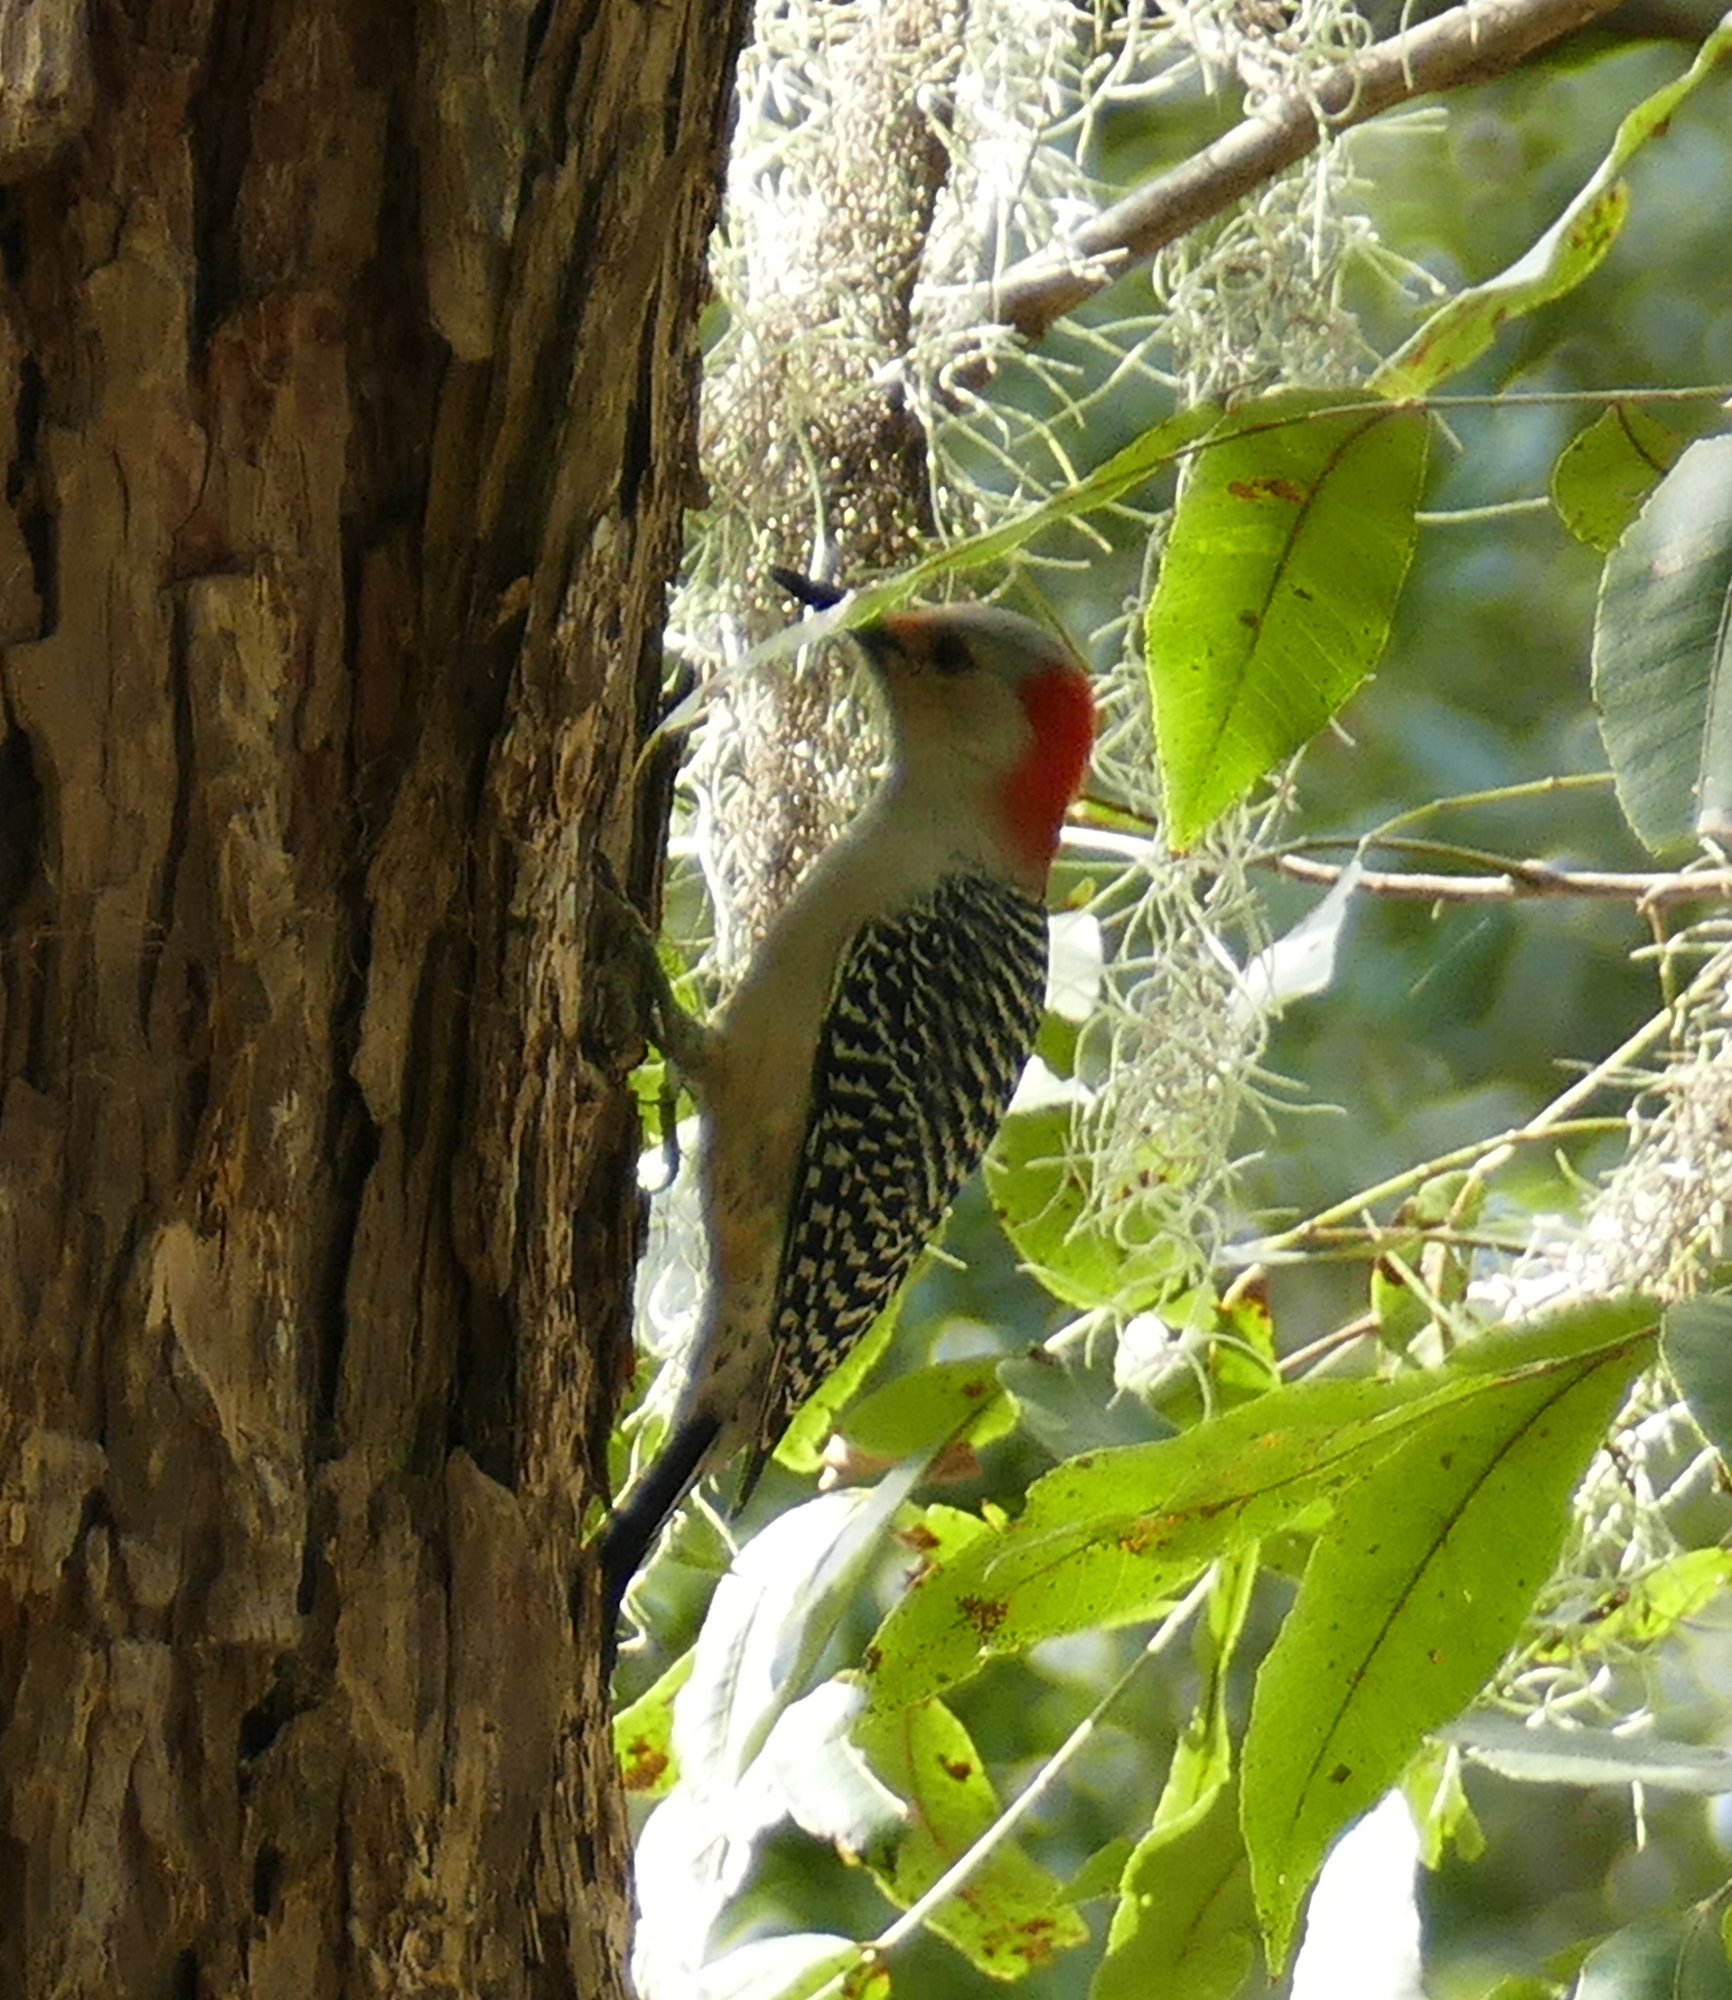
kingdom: Animalia
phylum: Chordata
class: Aves
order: Piciformes
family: Picidae
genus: Melanerpes
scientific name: Melanerpes carolinus
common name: Red-bellied woodpecker
